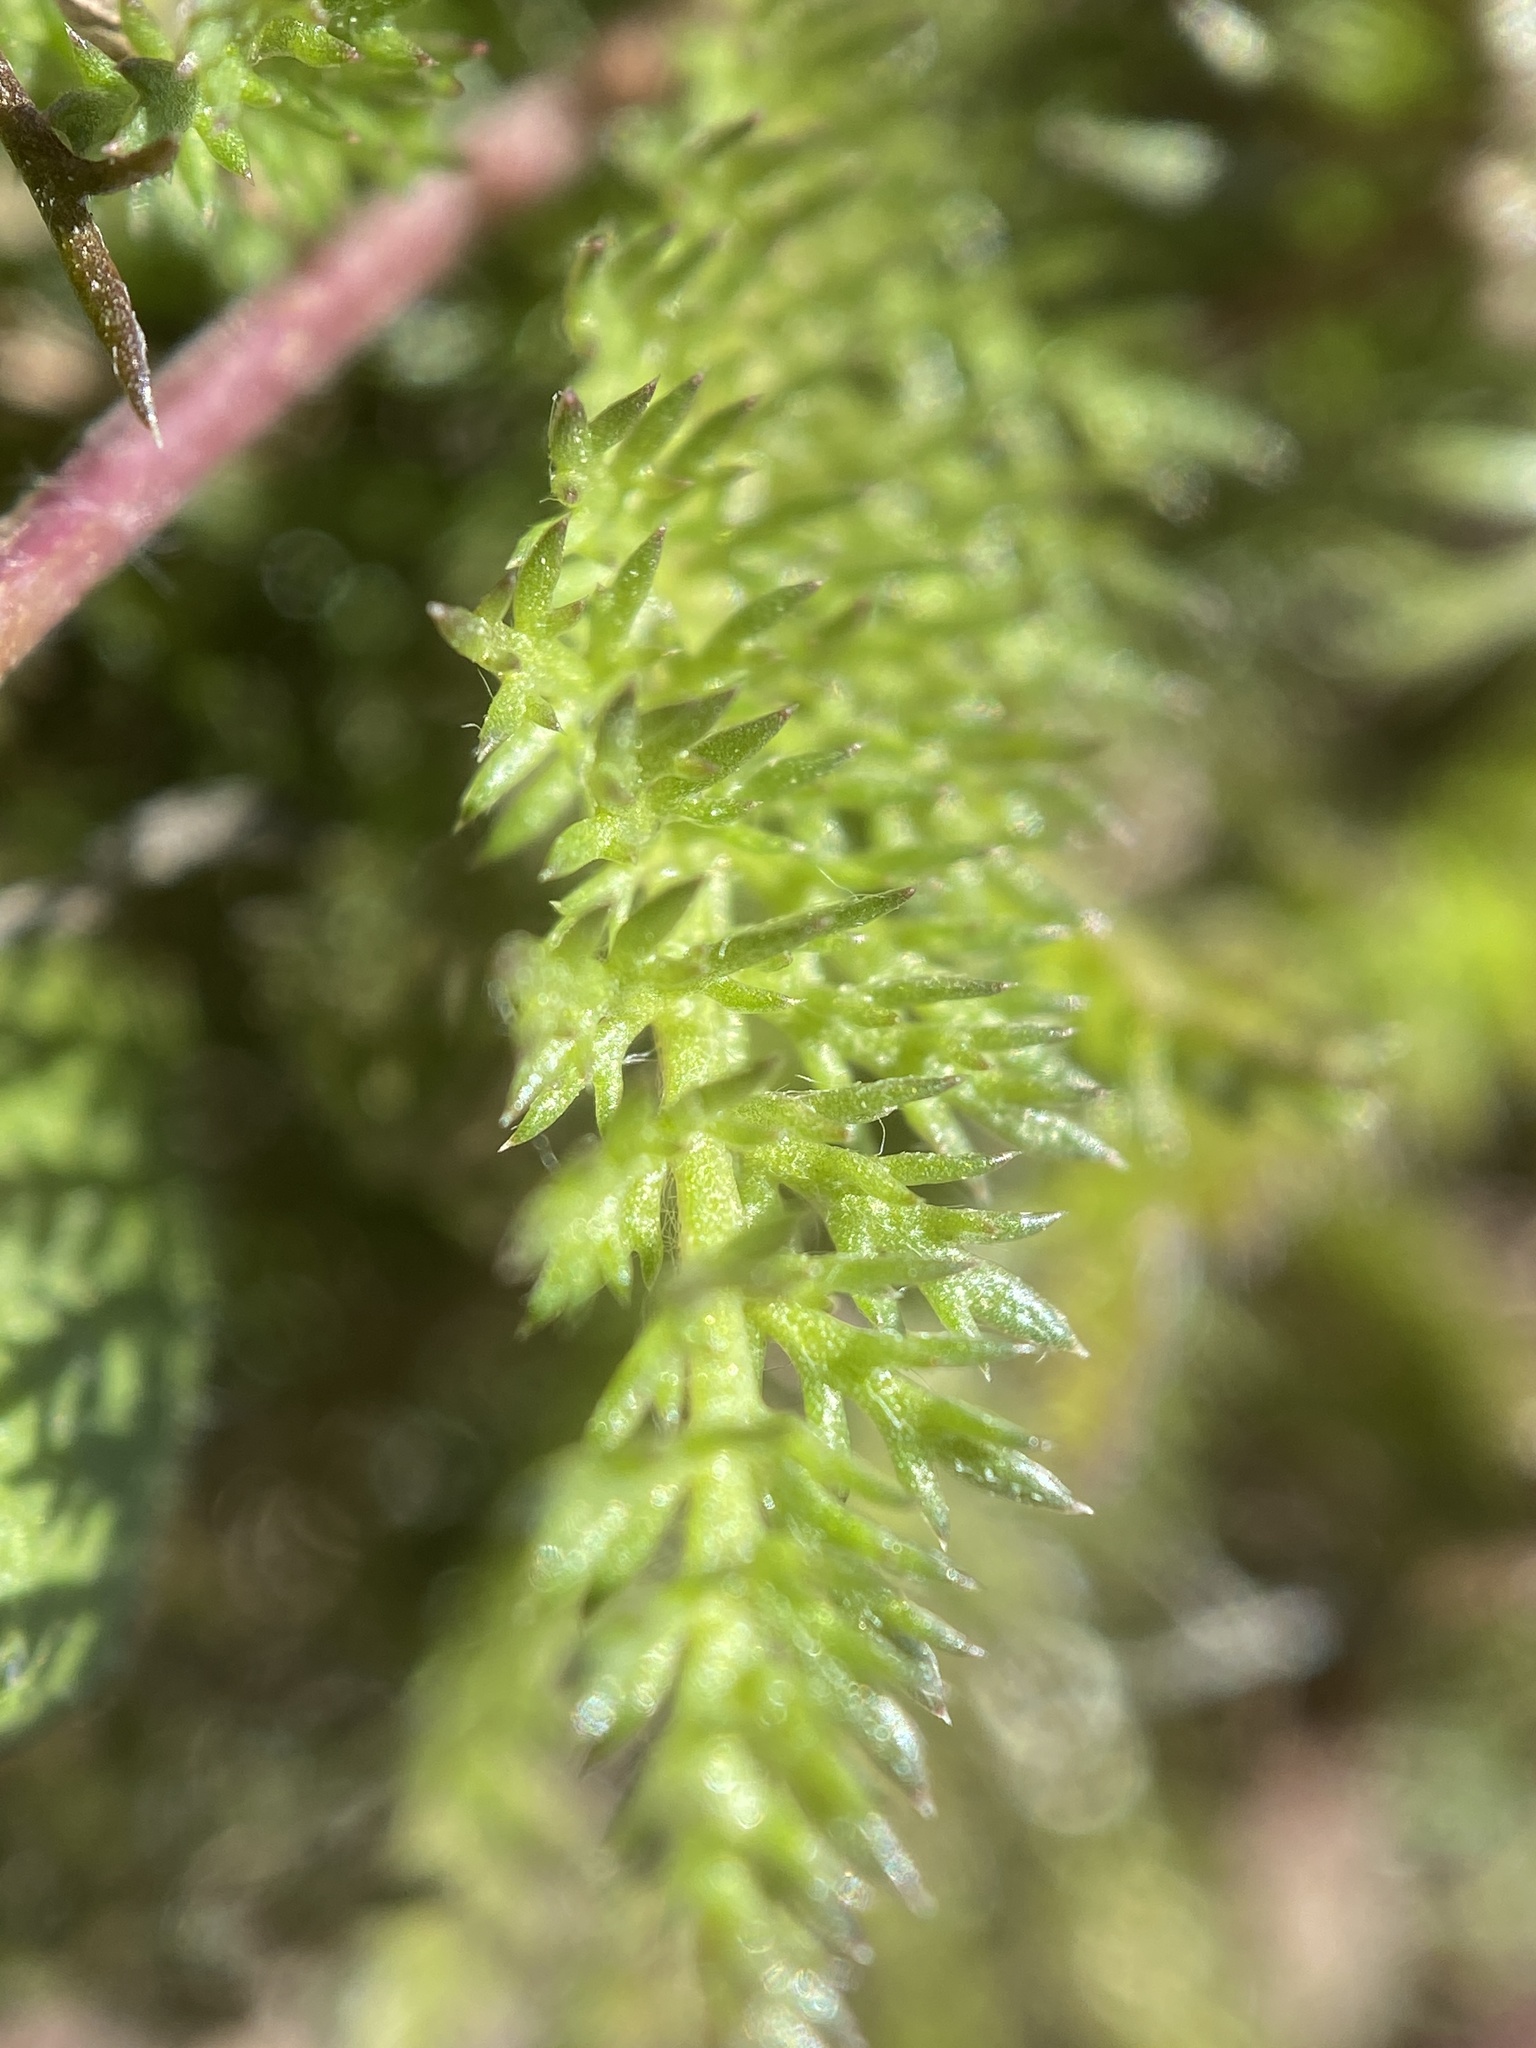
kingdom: Plantae
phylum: Tracheophyta
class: Magnoliopsida
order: Asterales
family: Asteraceae
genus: Achillea
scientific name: Achillea millefolium
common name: Yarrow
